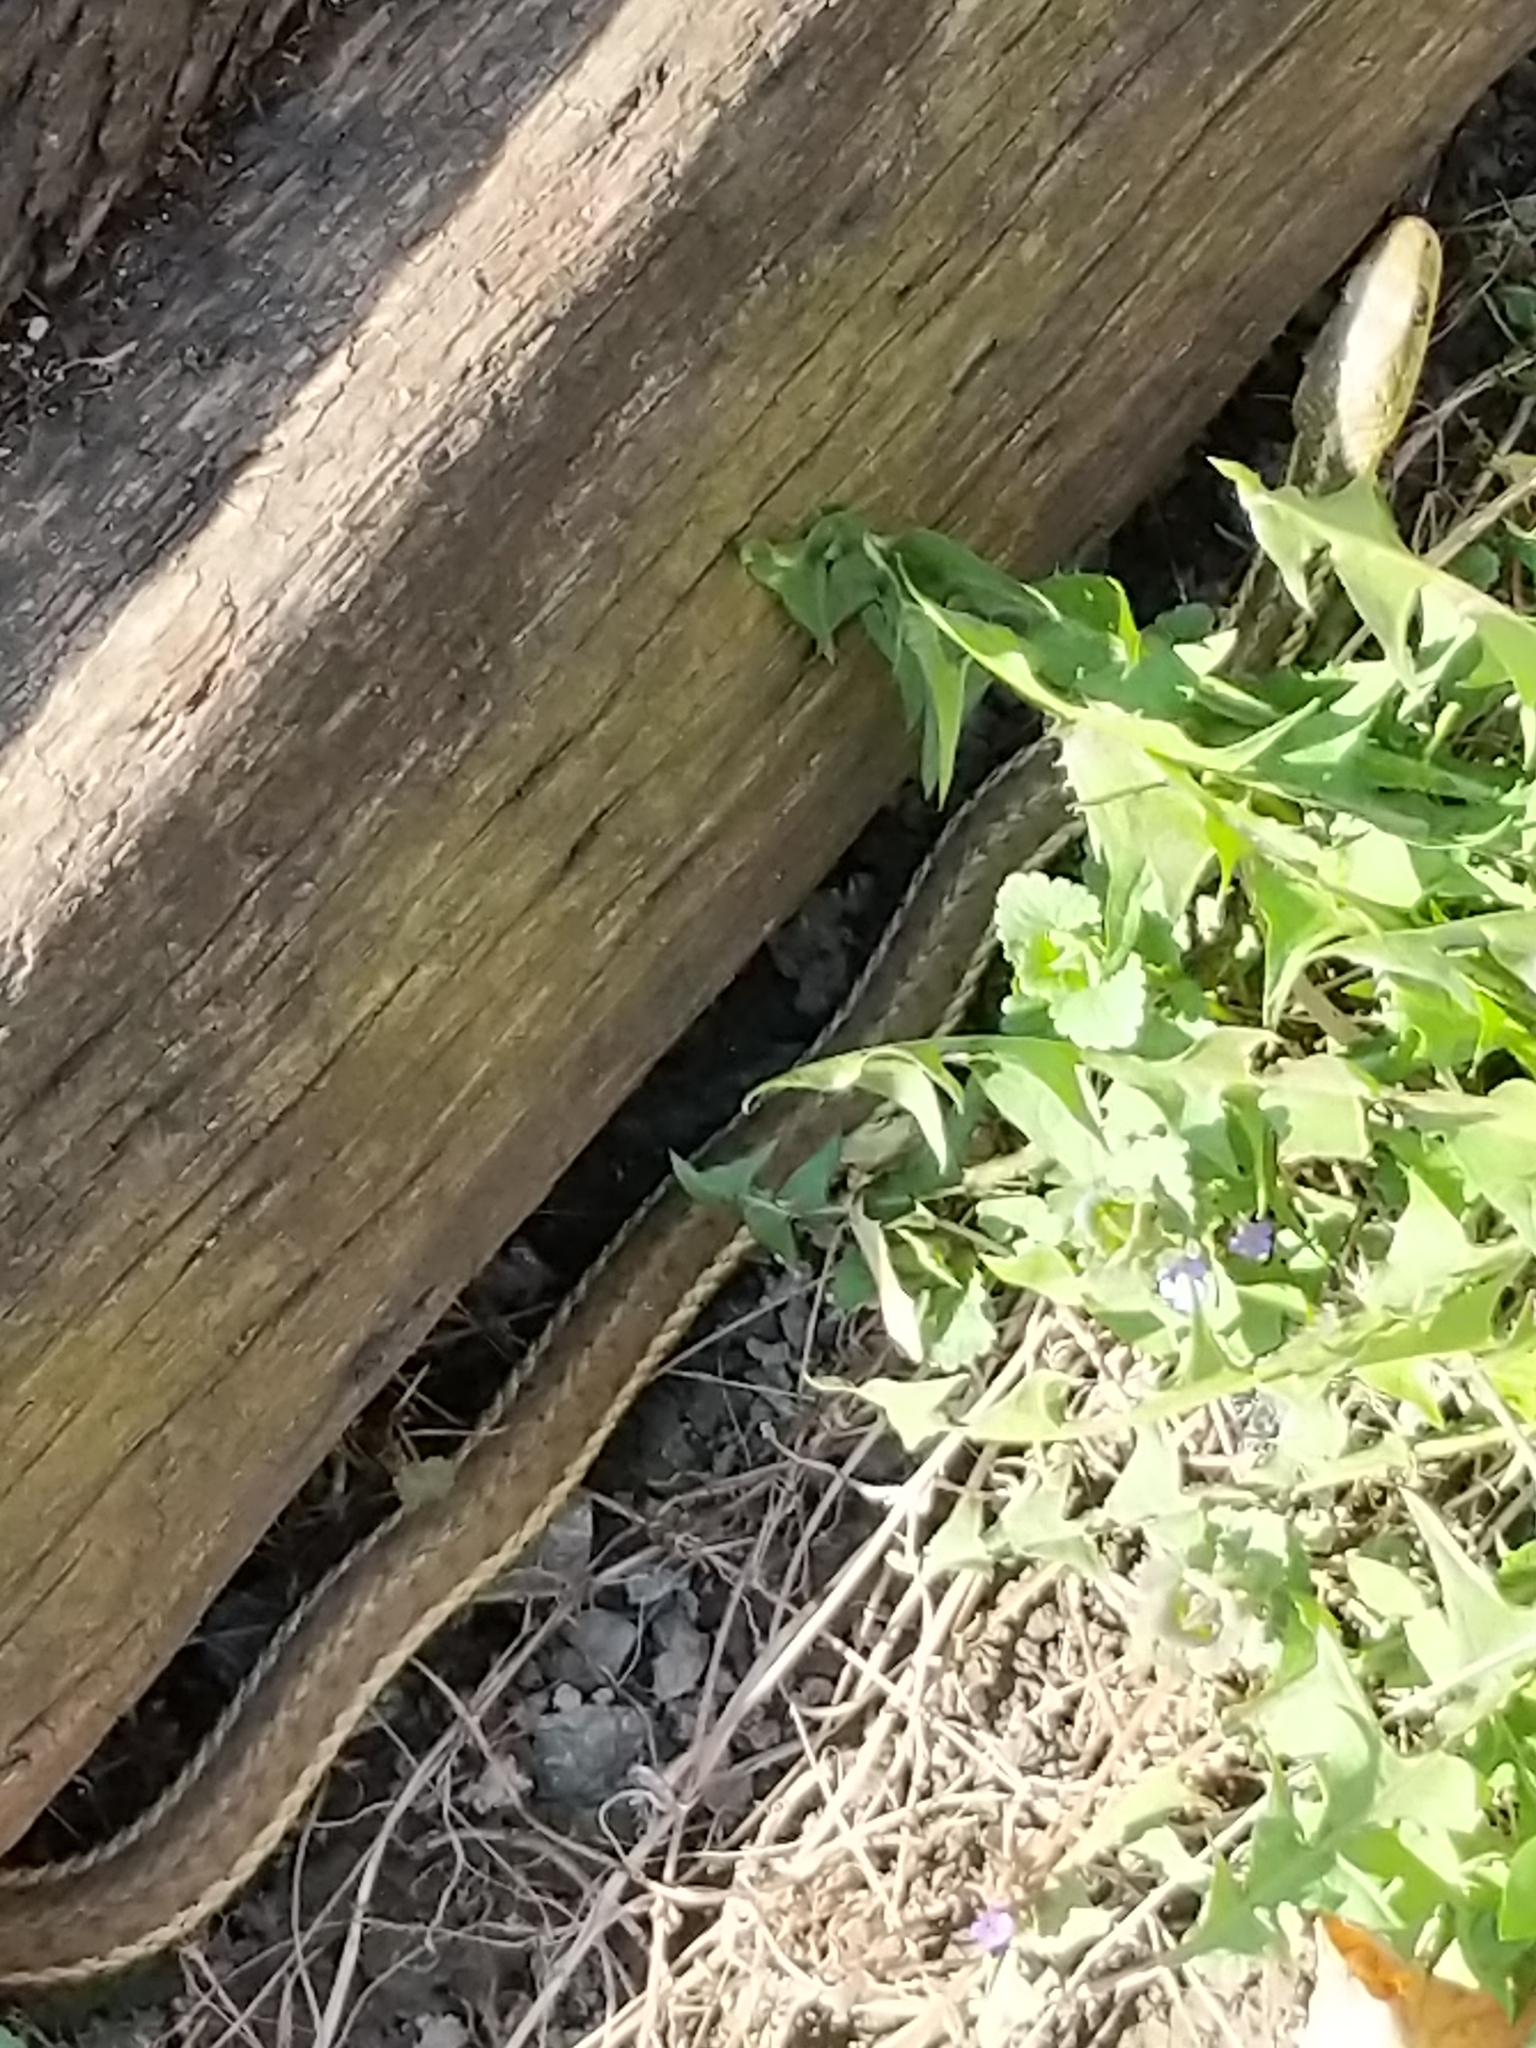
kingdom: Animalia
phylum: Chordata
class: Squamata
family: Colubridae
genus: Thamnophis
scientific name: Thamnophis sirtalis
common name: Common garter snake
